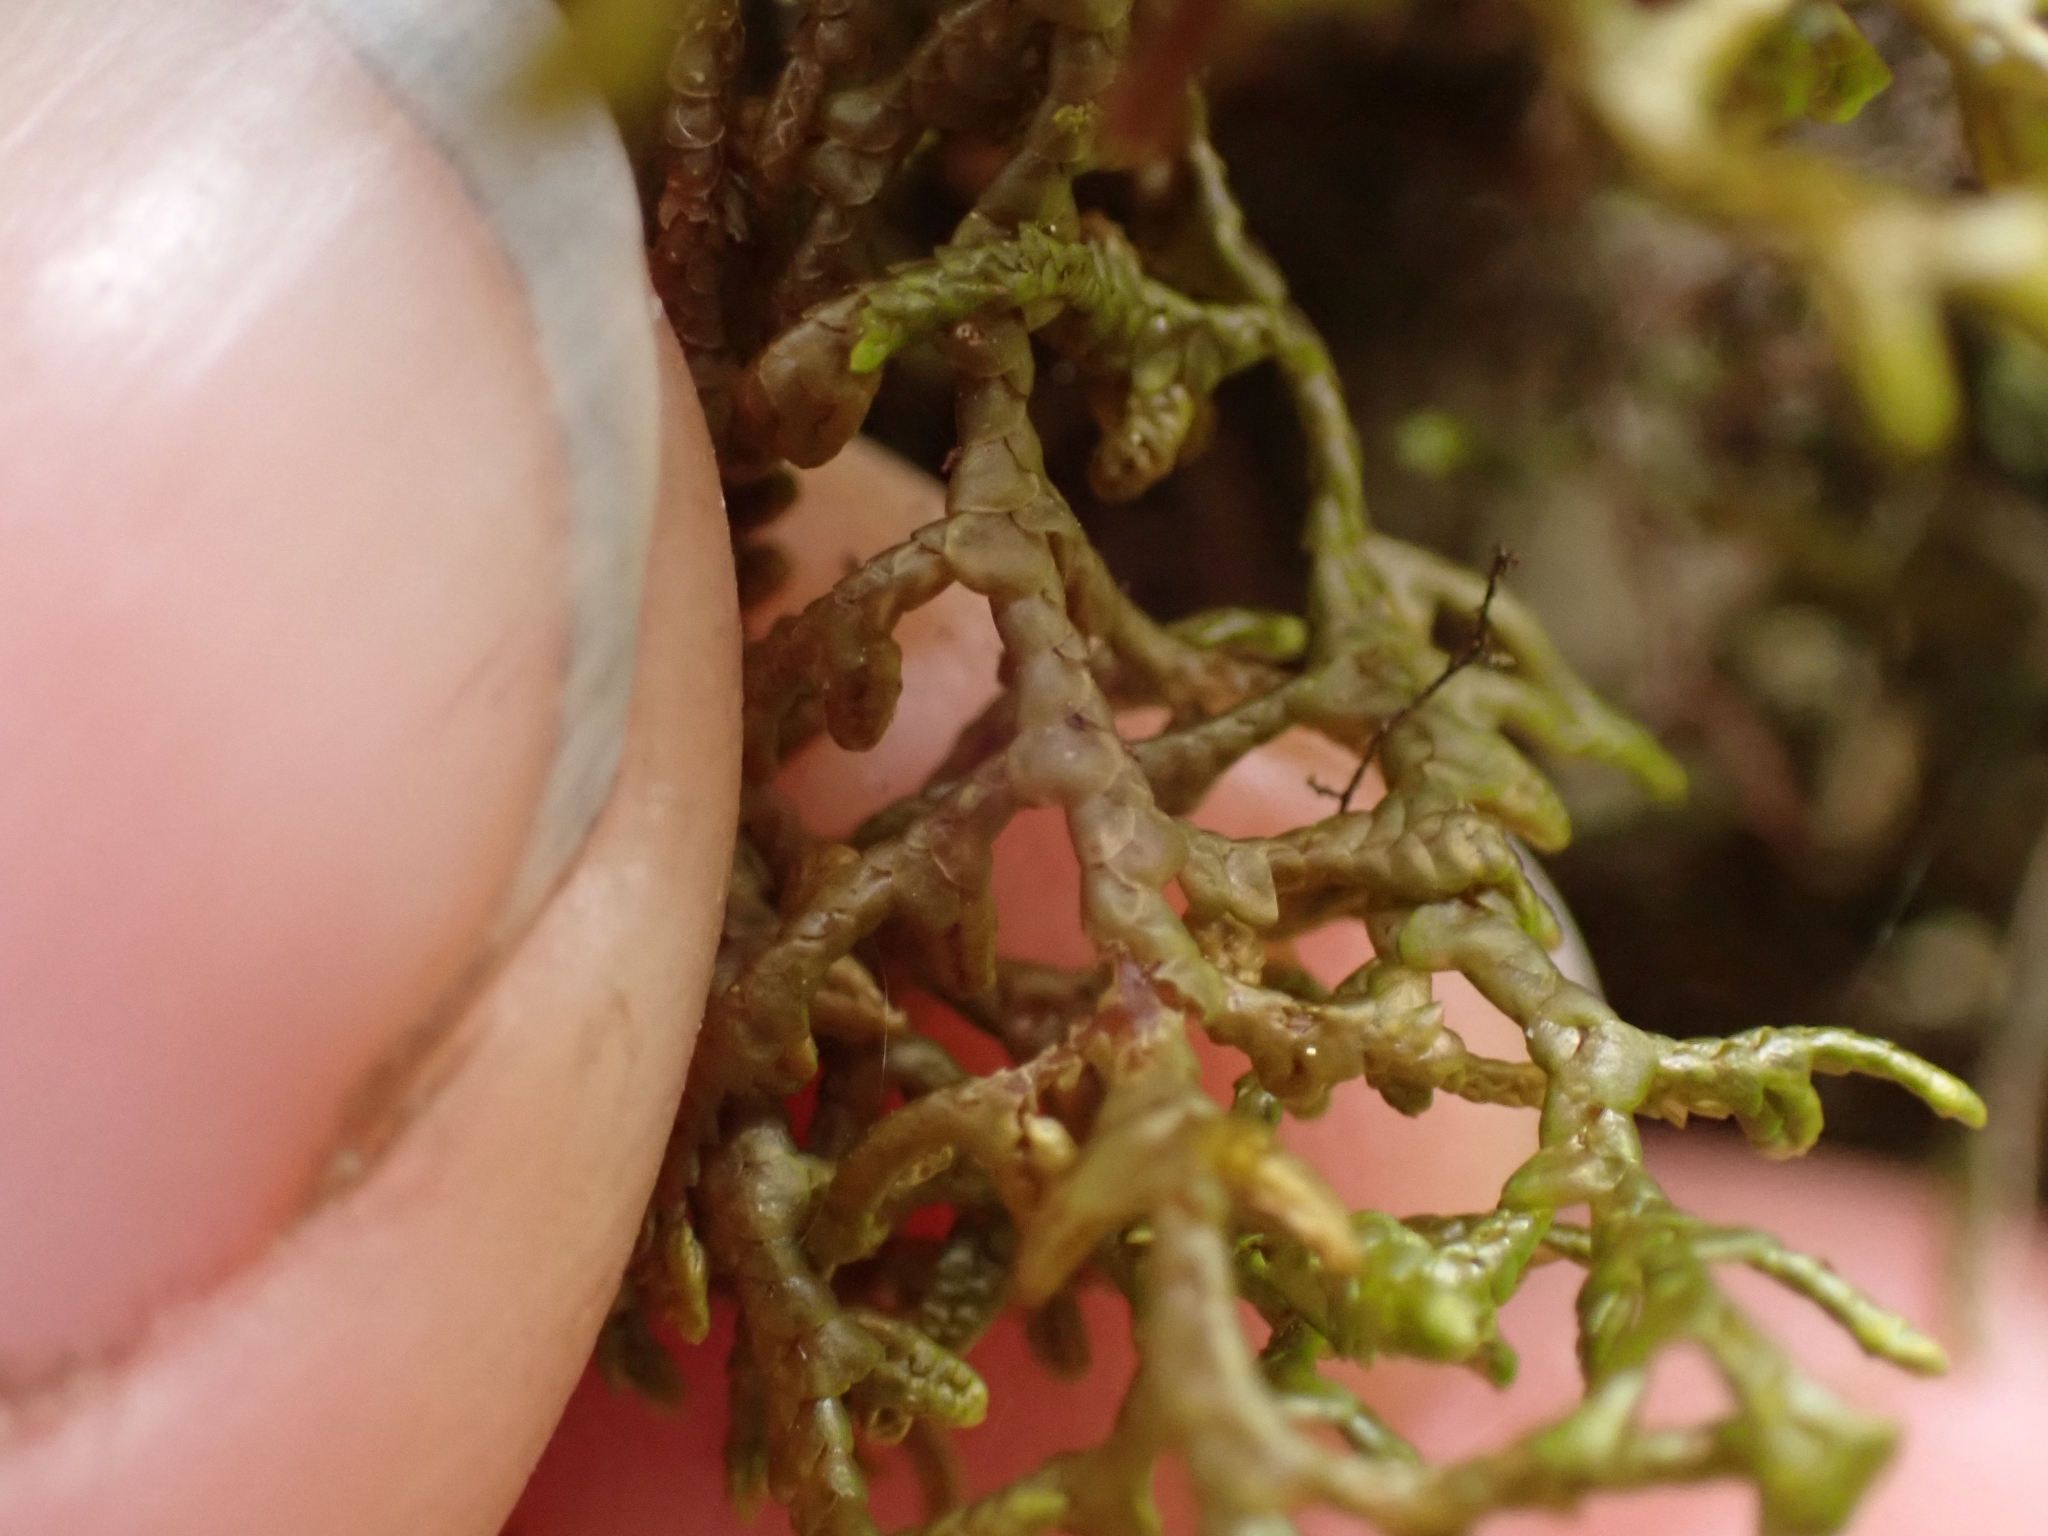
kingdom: Plantae
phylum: Marchantiophyta
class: Jungermanniopsida
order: Porellales
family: Porellaceae
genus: Porella
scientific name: Porella navicularis
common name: Tree ruffle liverwort
